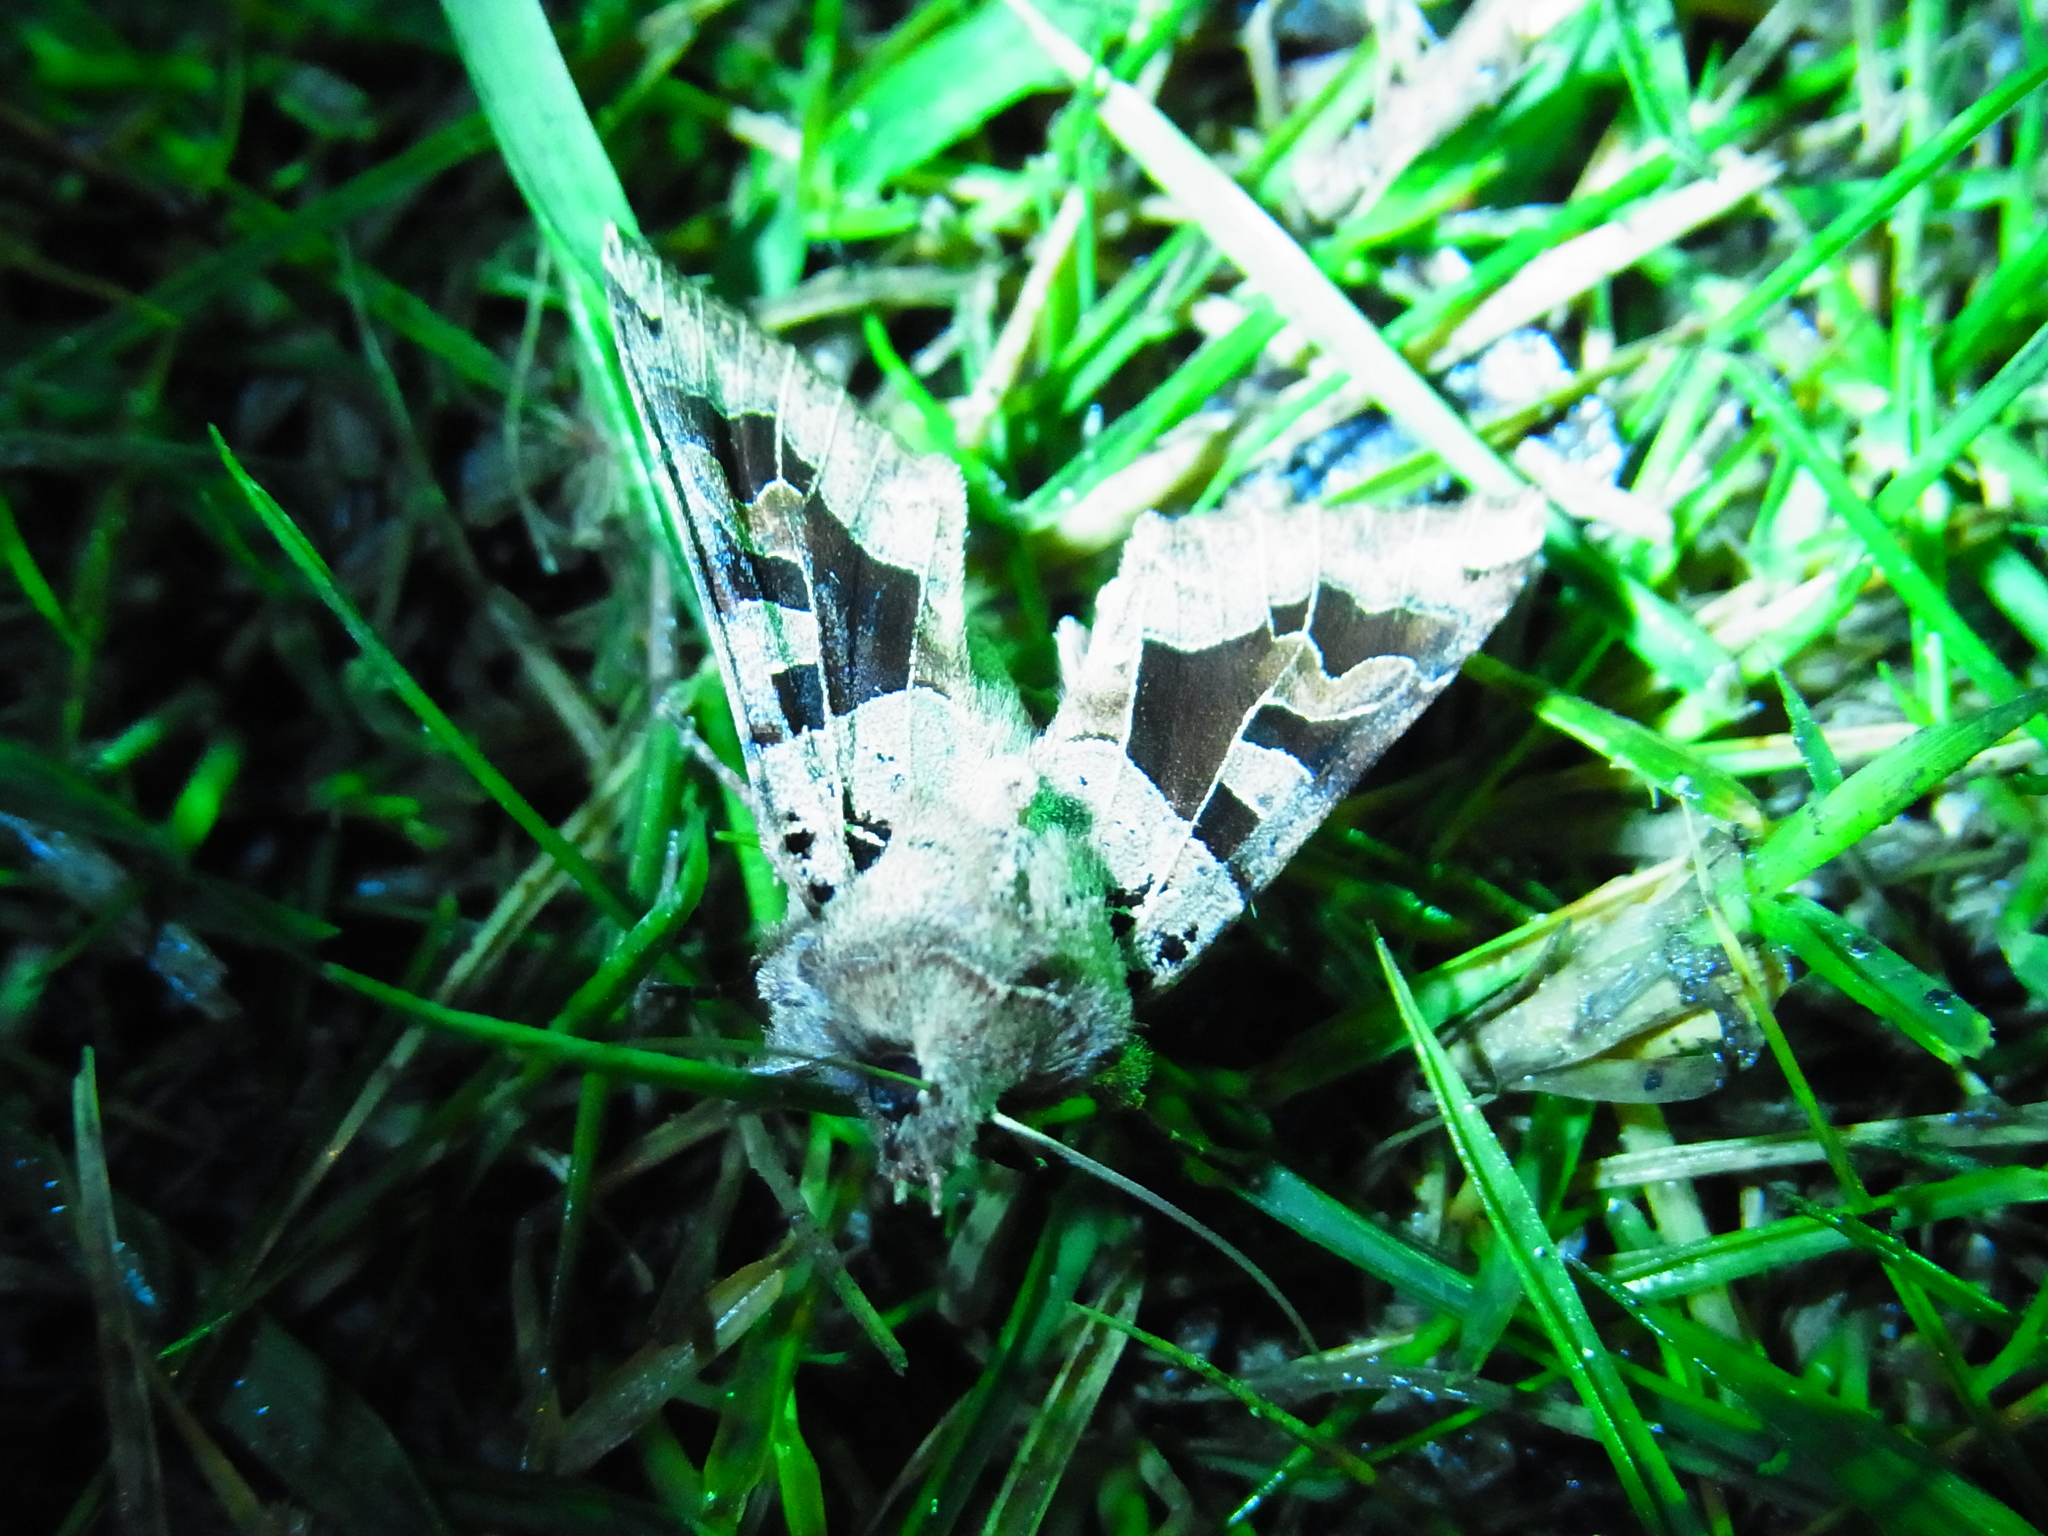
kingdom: Animalia
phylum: Arthropoda
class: Insecta
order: Lepidoptera
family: Noctuidae
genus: Clavipalpula
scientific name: Clavipalpula aurariae
